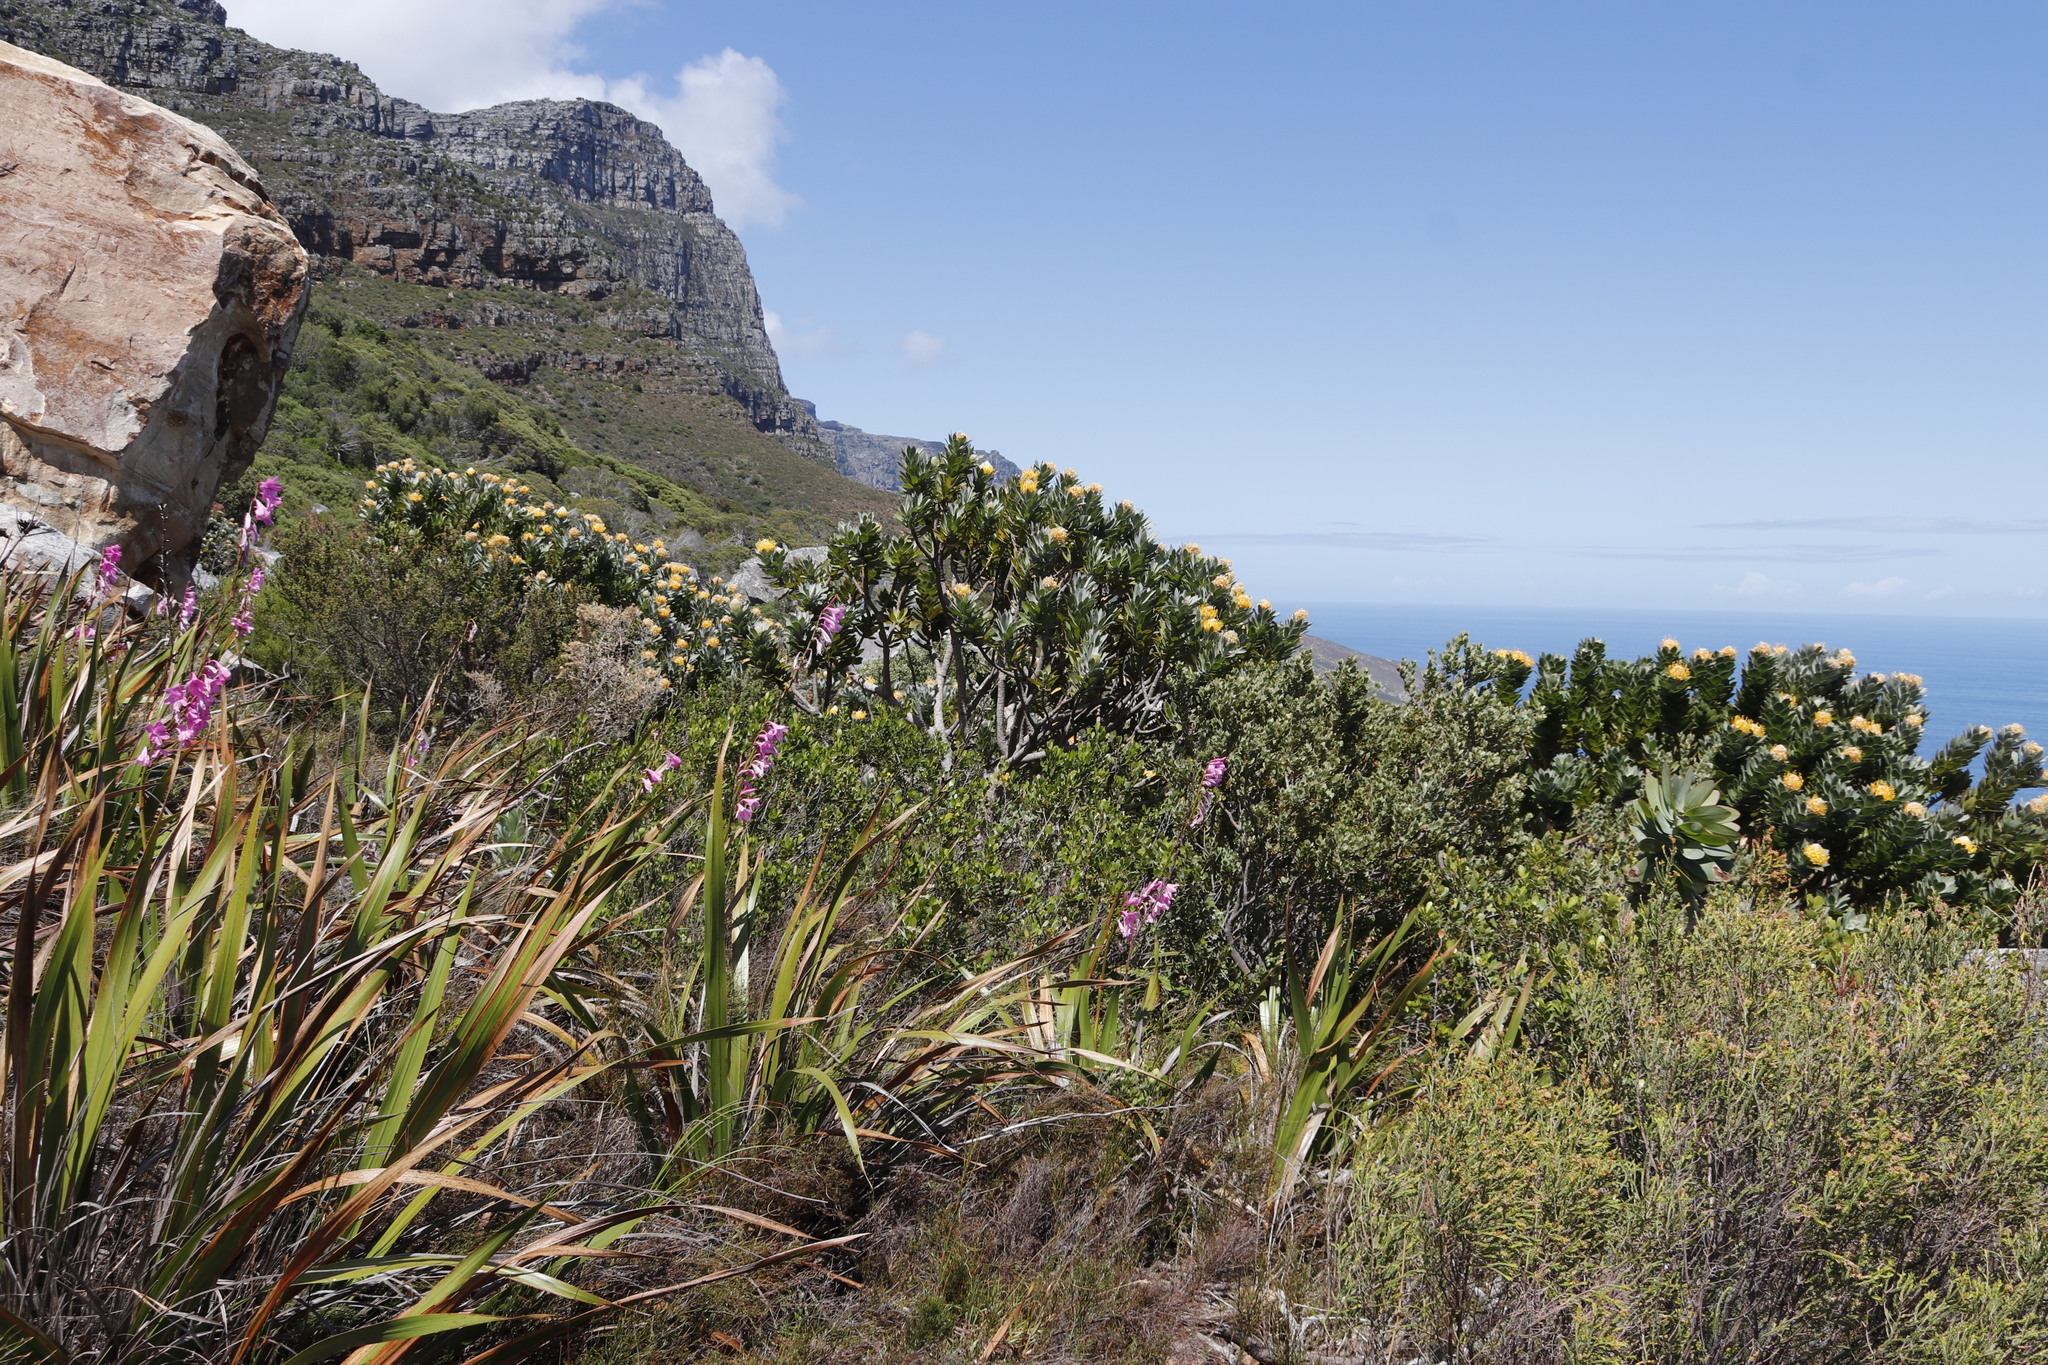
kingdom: Plantae
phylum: Tracheophyta
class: Magnoliopsida
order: Proteales
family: Proteaceae
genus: Leucospermum
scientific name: Leucospermum conocarpodendron
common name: Tree pincushion
